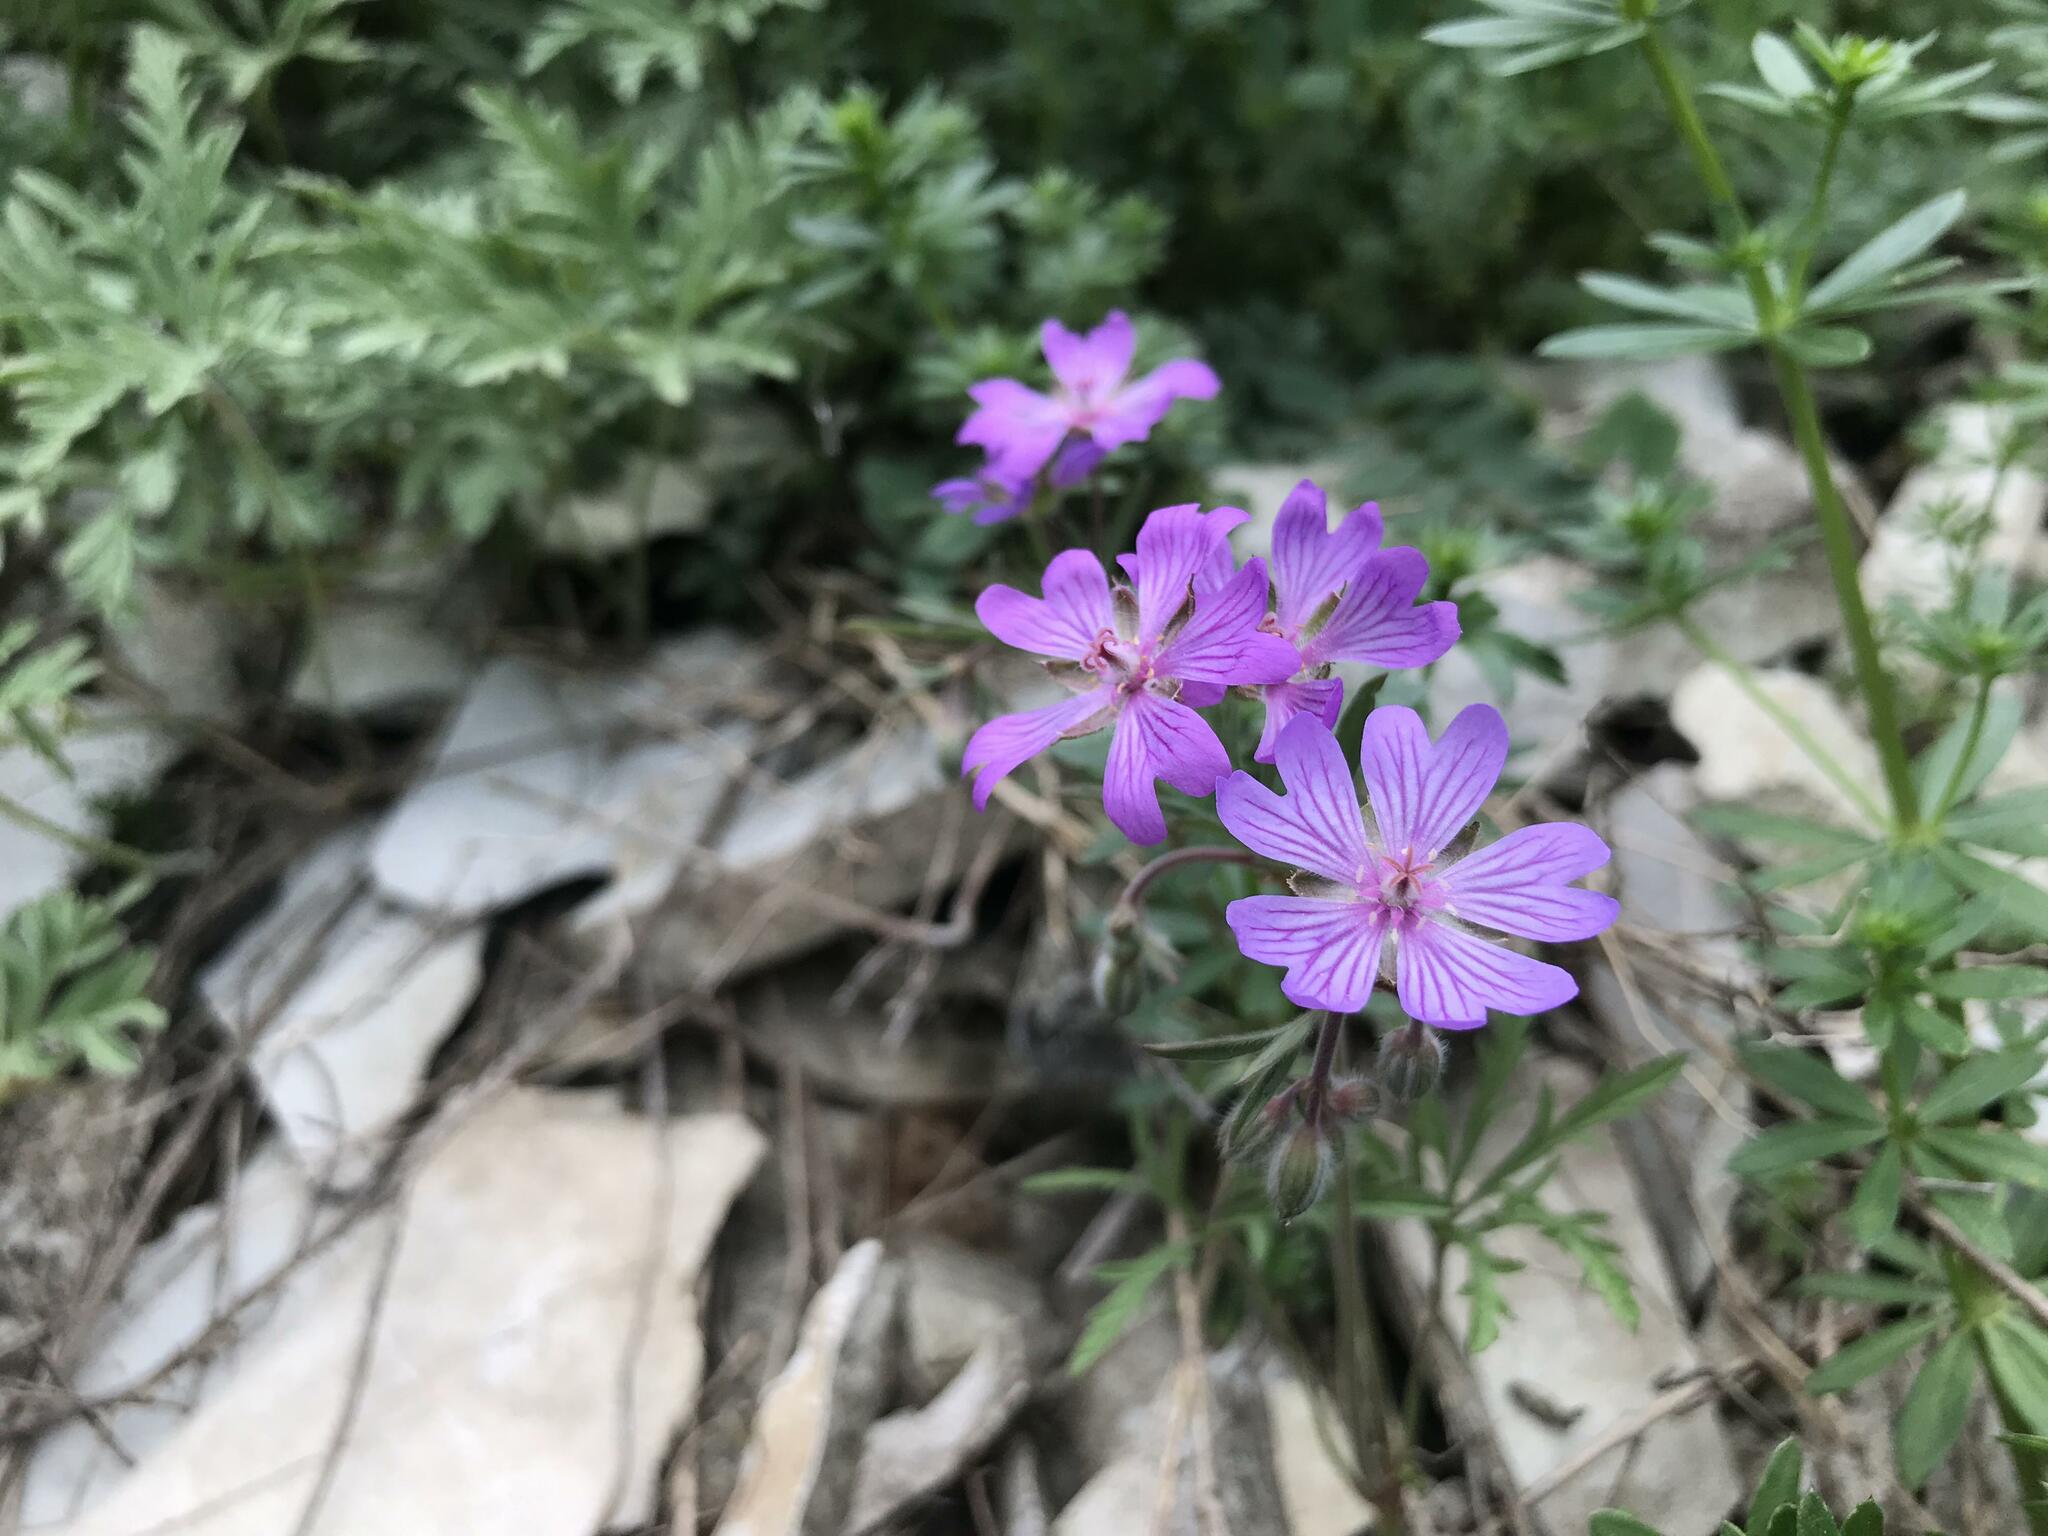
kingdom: Plantae
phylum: Tracheophyta
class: Magnoliopsida
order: Geraniales
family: Geraniaceae
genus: Geranium
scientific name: Geranium tuberosum
